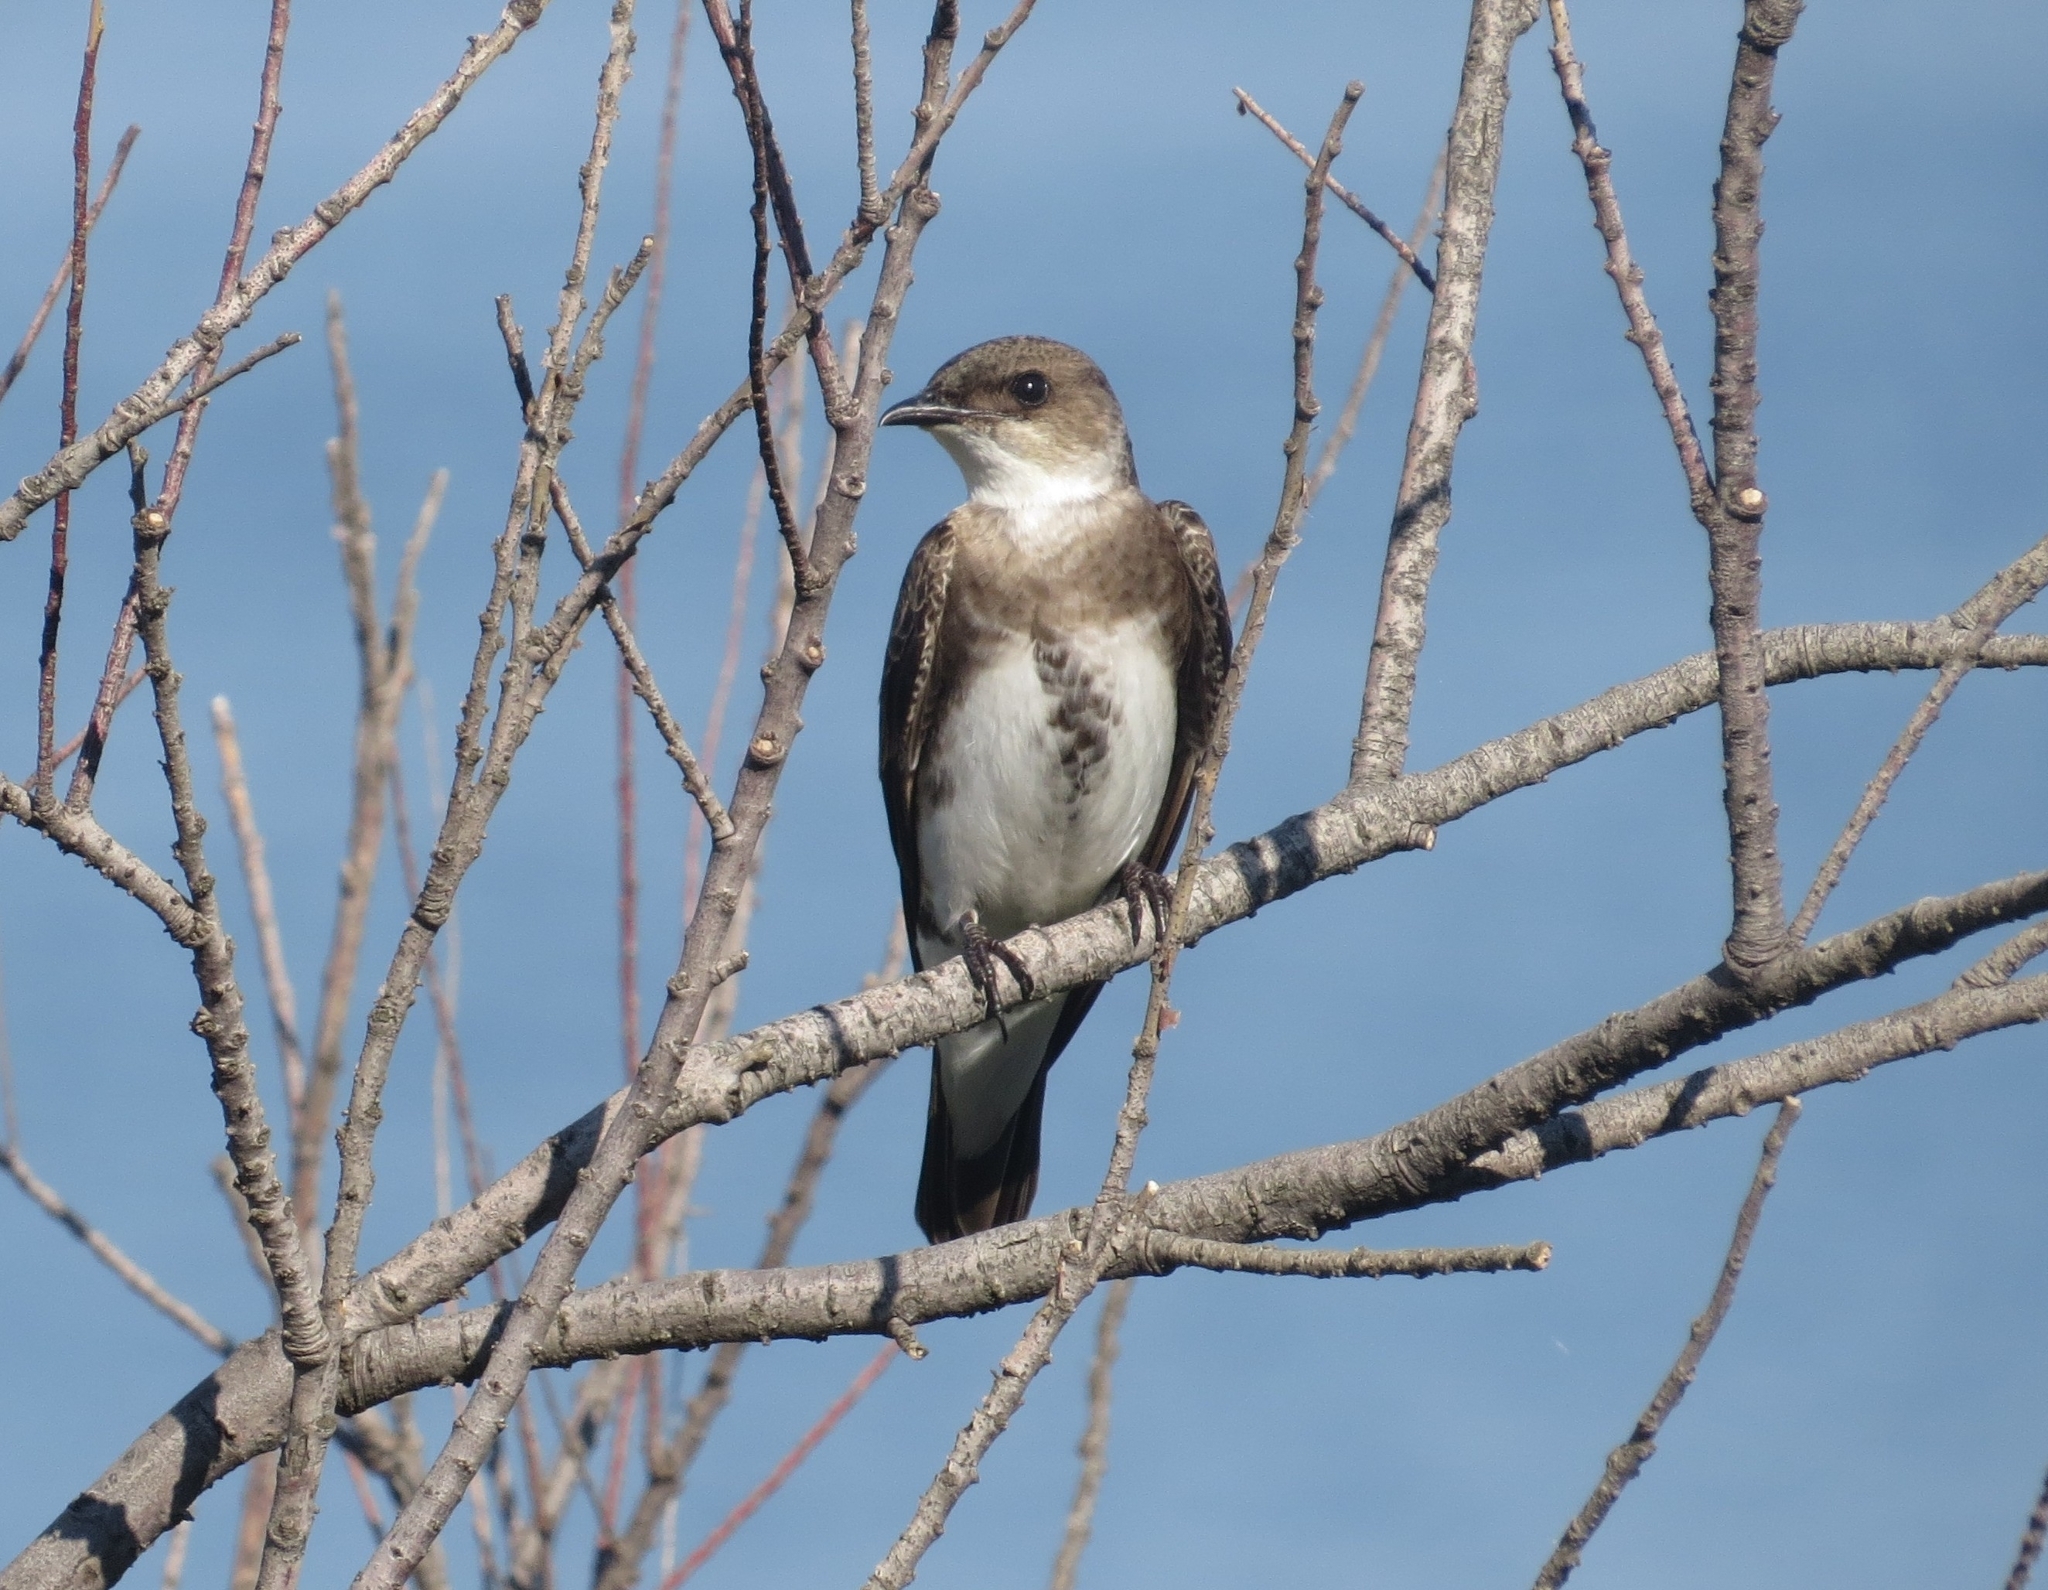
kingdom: Animalia
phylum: Chordata
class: Aves
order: Passeriformes
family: Hirundinidae
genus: Progne
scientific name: Progne tapera
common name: Brown-chested martin
